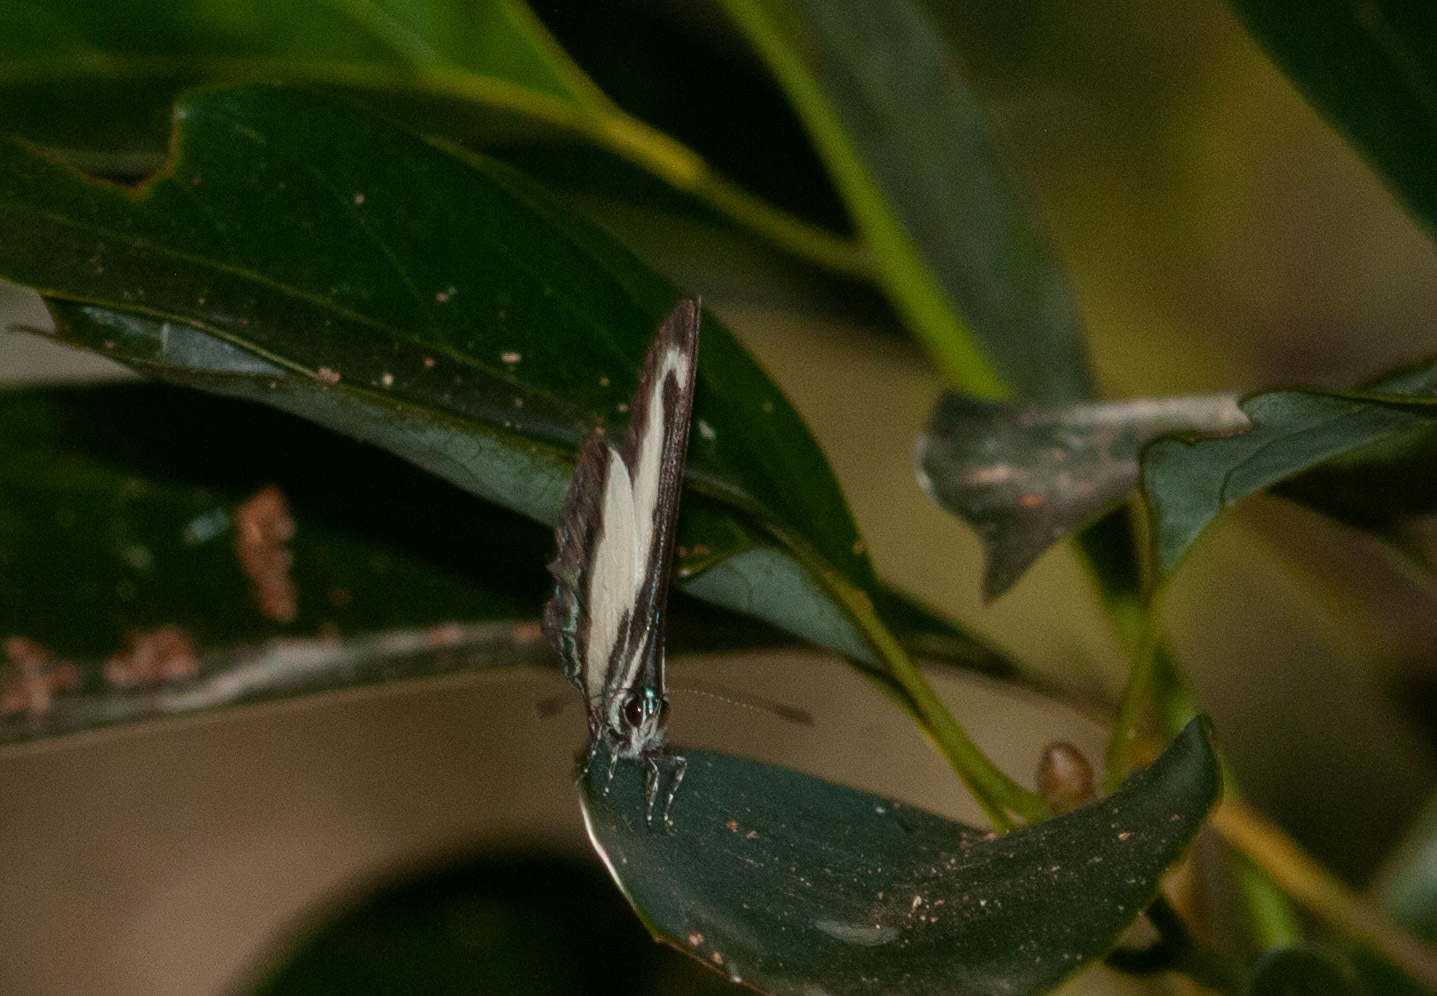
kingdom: Animalia
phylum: Arthropoda
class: Insecta
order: Lepidoptera
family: Lycaenidae
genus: Psychonotis
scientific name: Psychonotis caelius
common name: Small green banded blue
